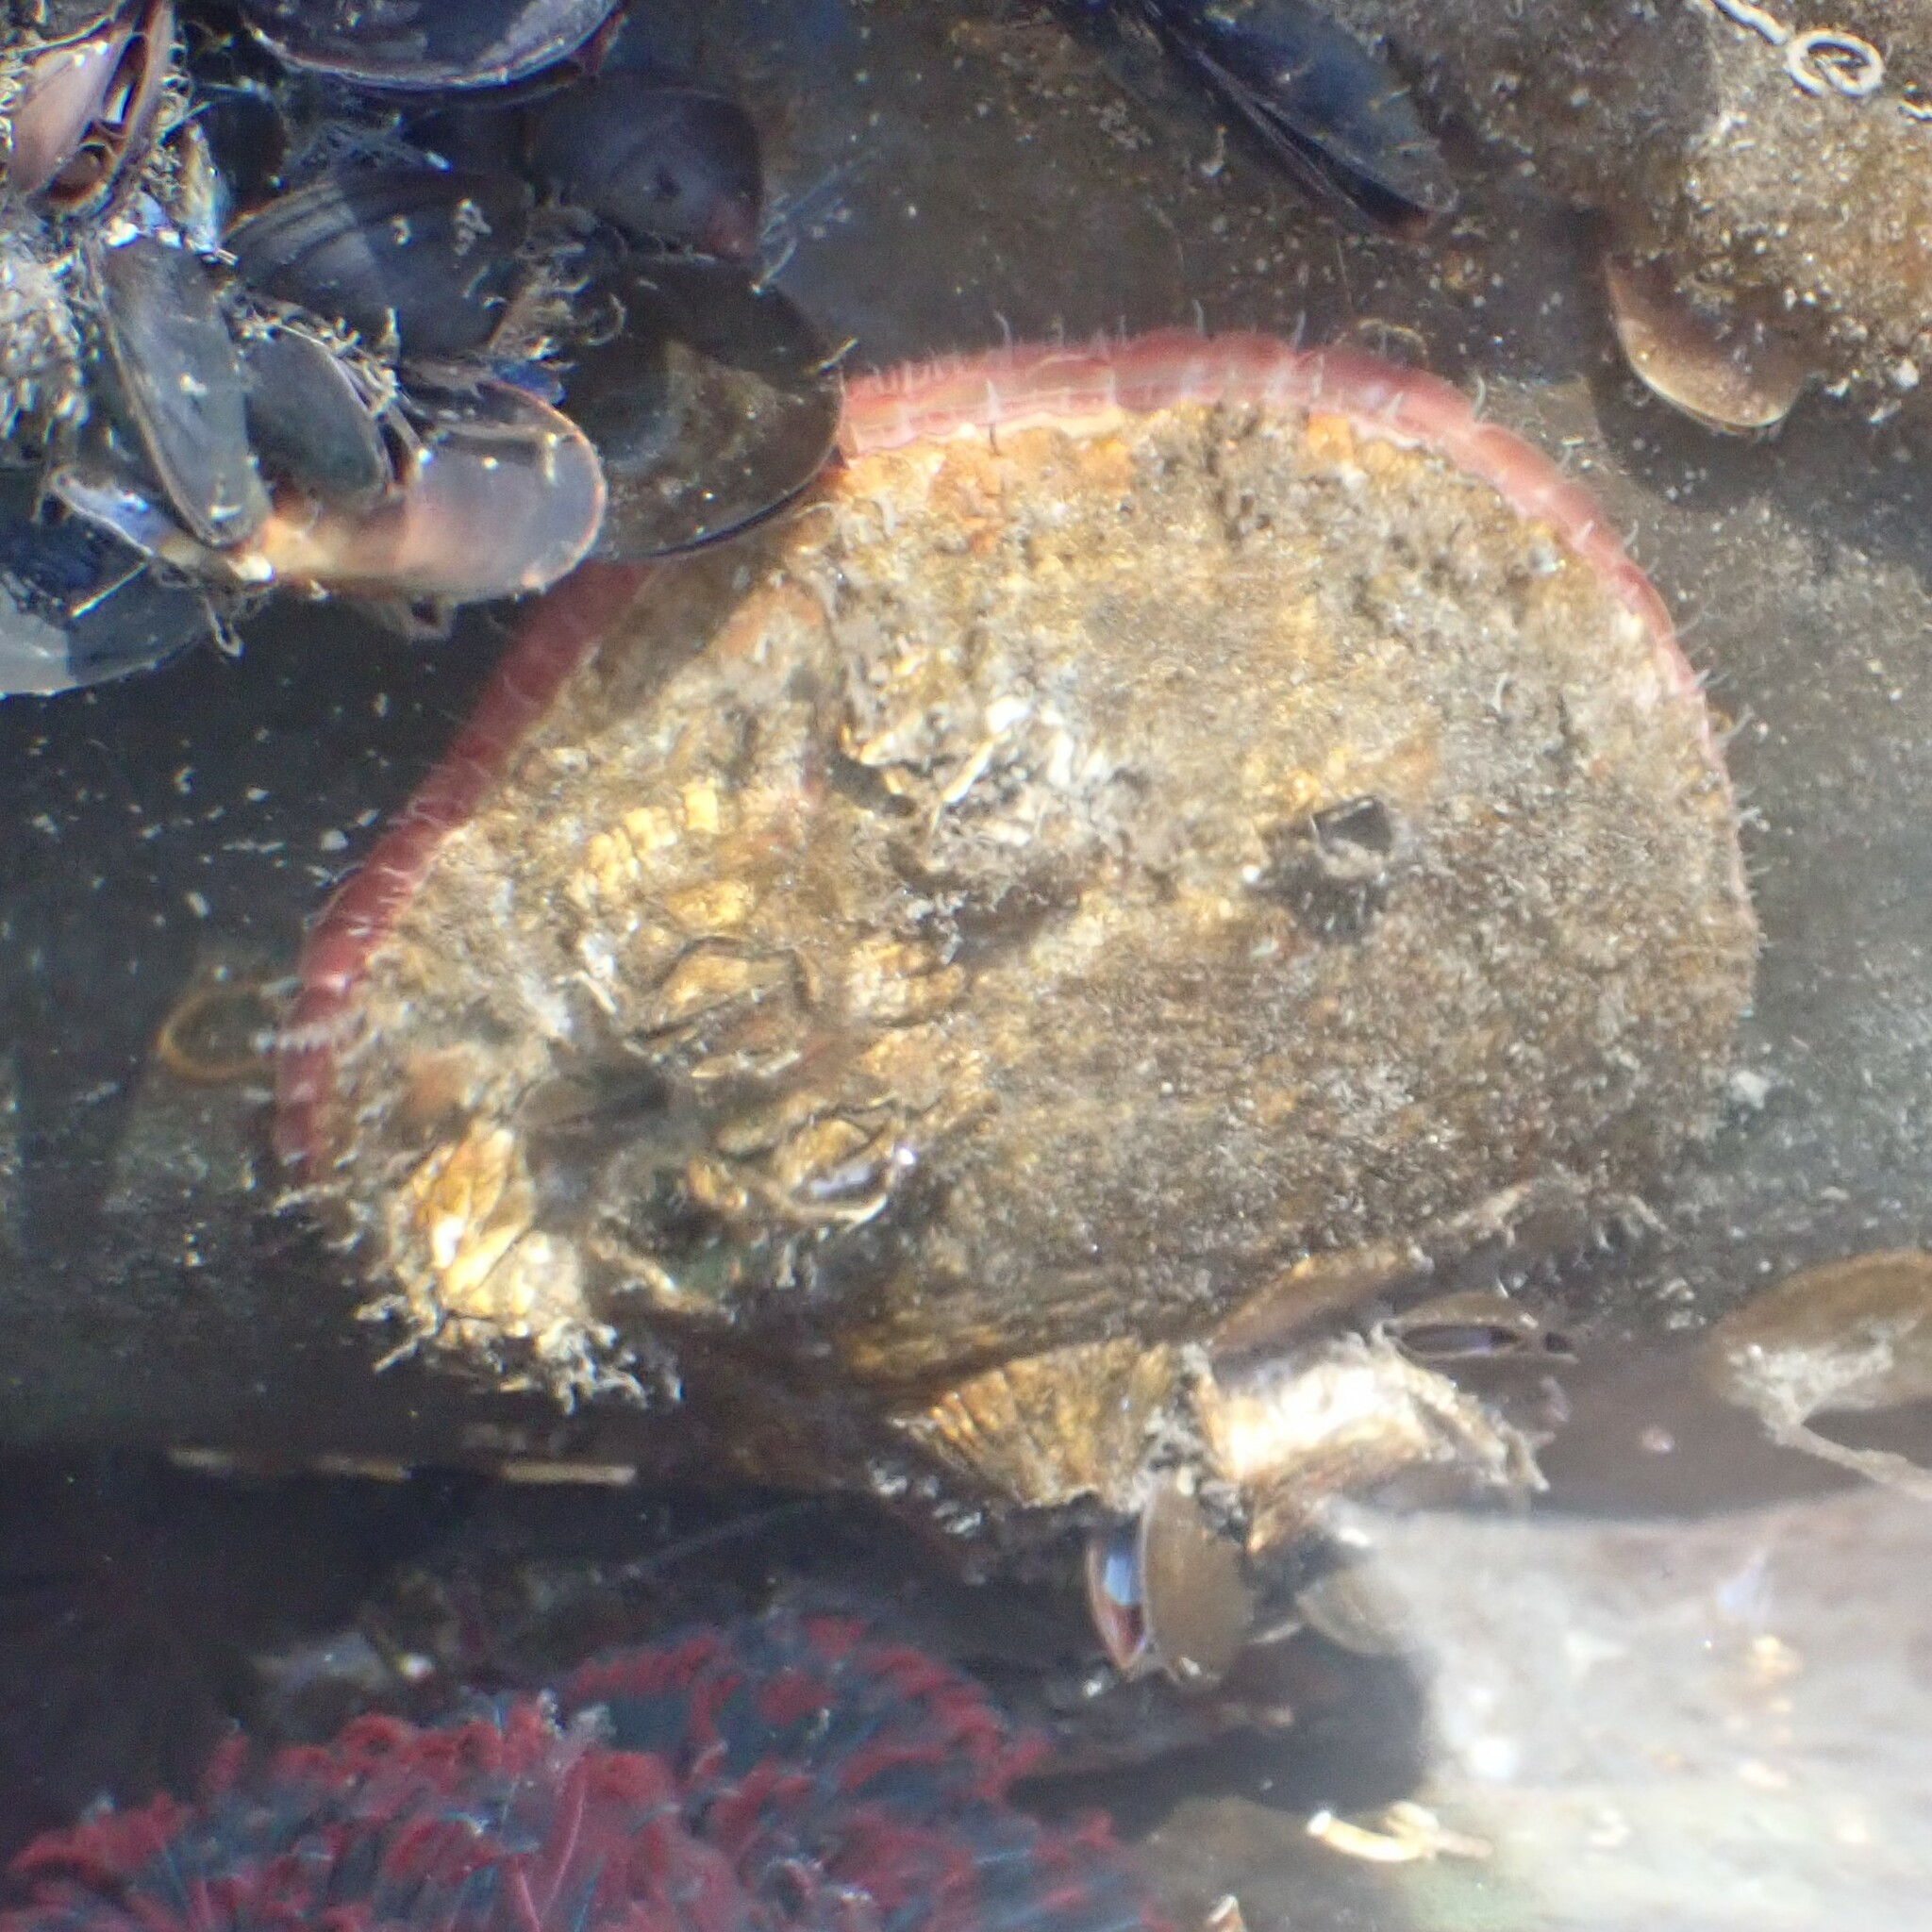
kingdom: Animalia
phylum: Mollusca
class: Bivalvia
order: Pectinida
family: Anomiidae
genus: Pododesmus
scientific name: Pododesmus macrochisma
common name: Alaska jingle
